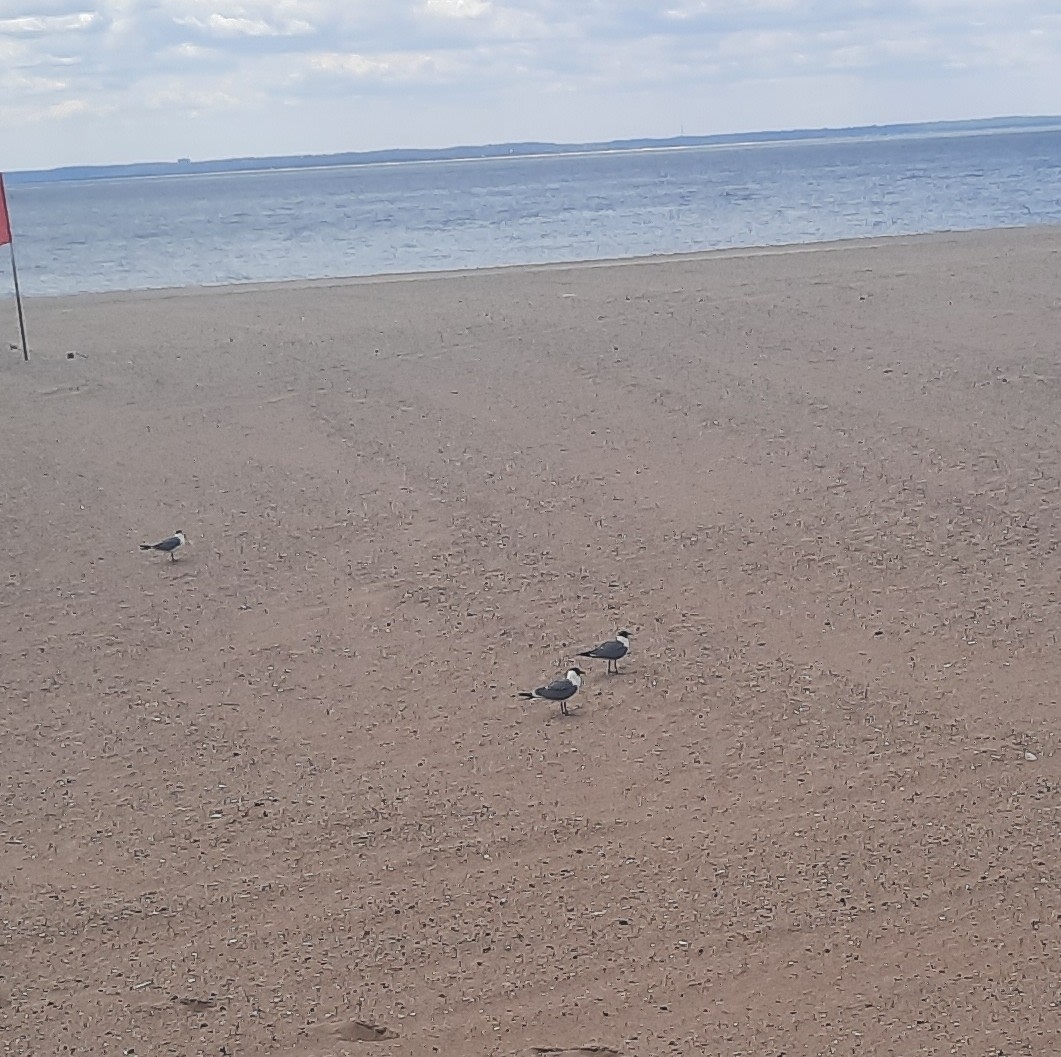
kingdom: Animalia
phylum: Chordata
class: Aves
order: Charadriiformes
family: Laridae
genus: Leucophaeus
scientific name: Leucophaeus atricilla
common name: Laughing gull
